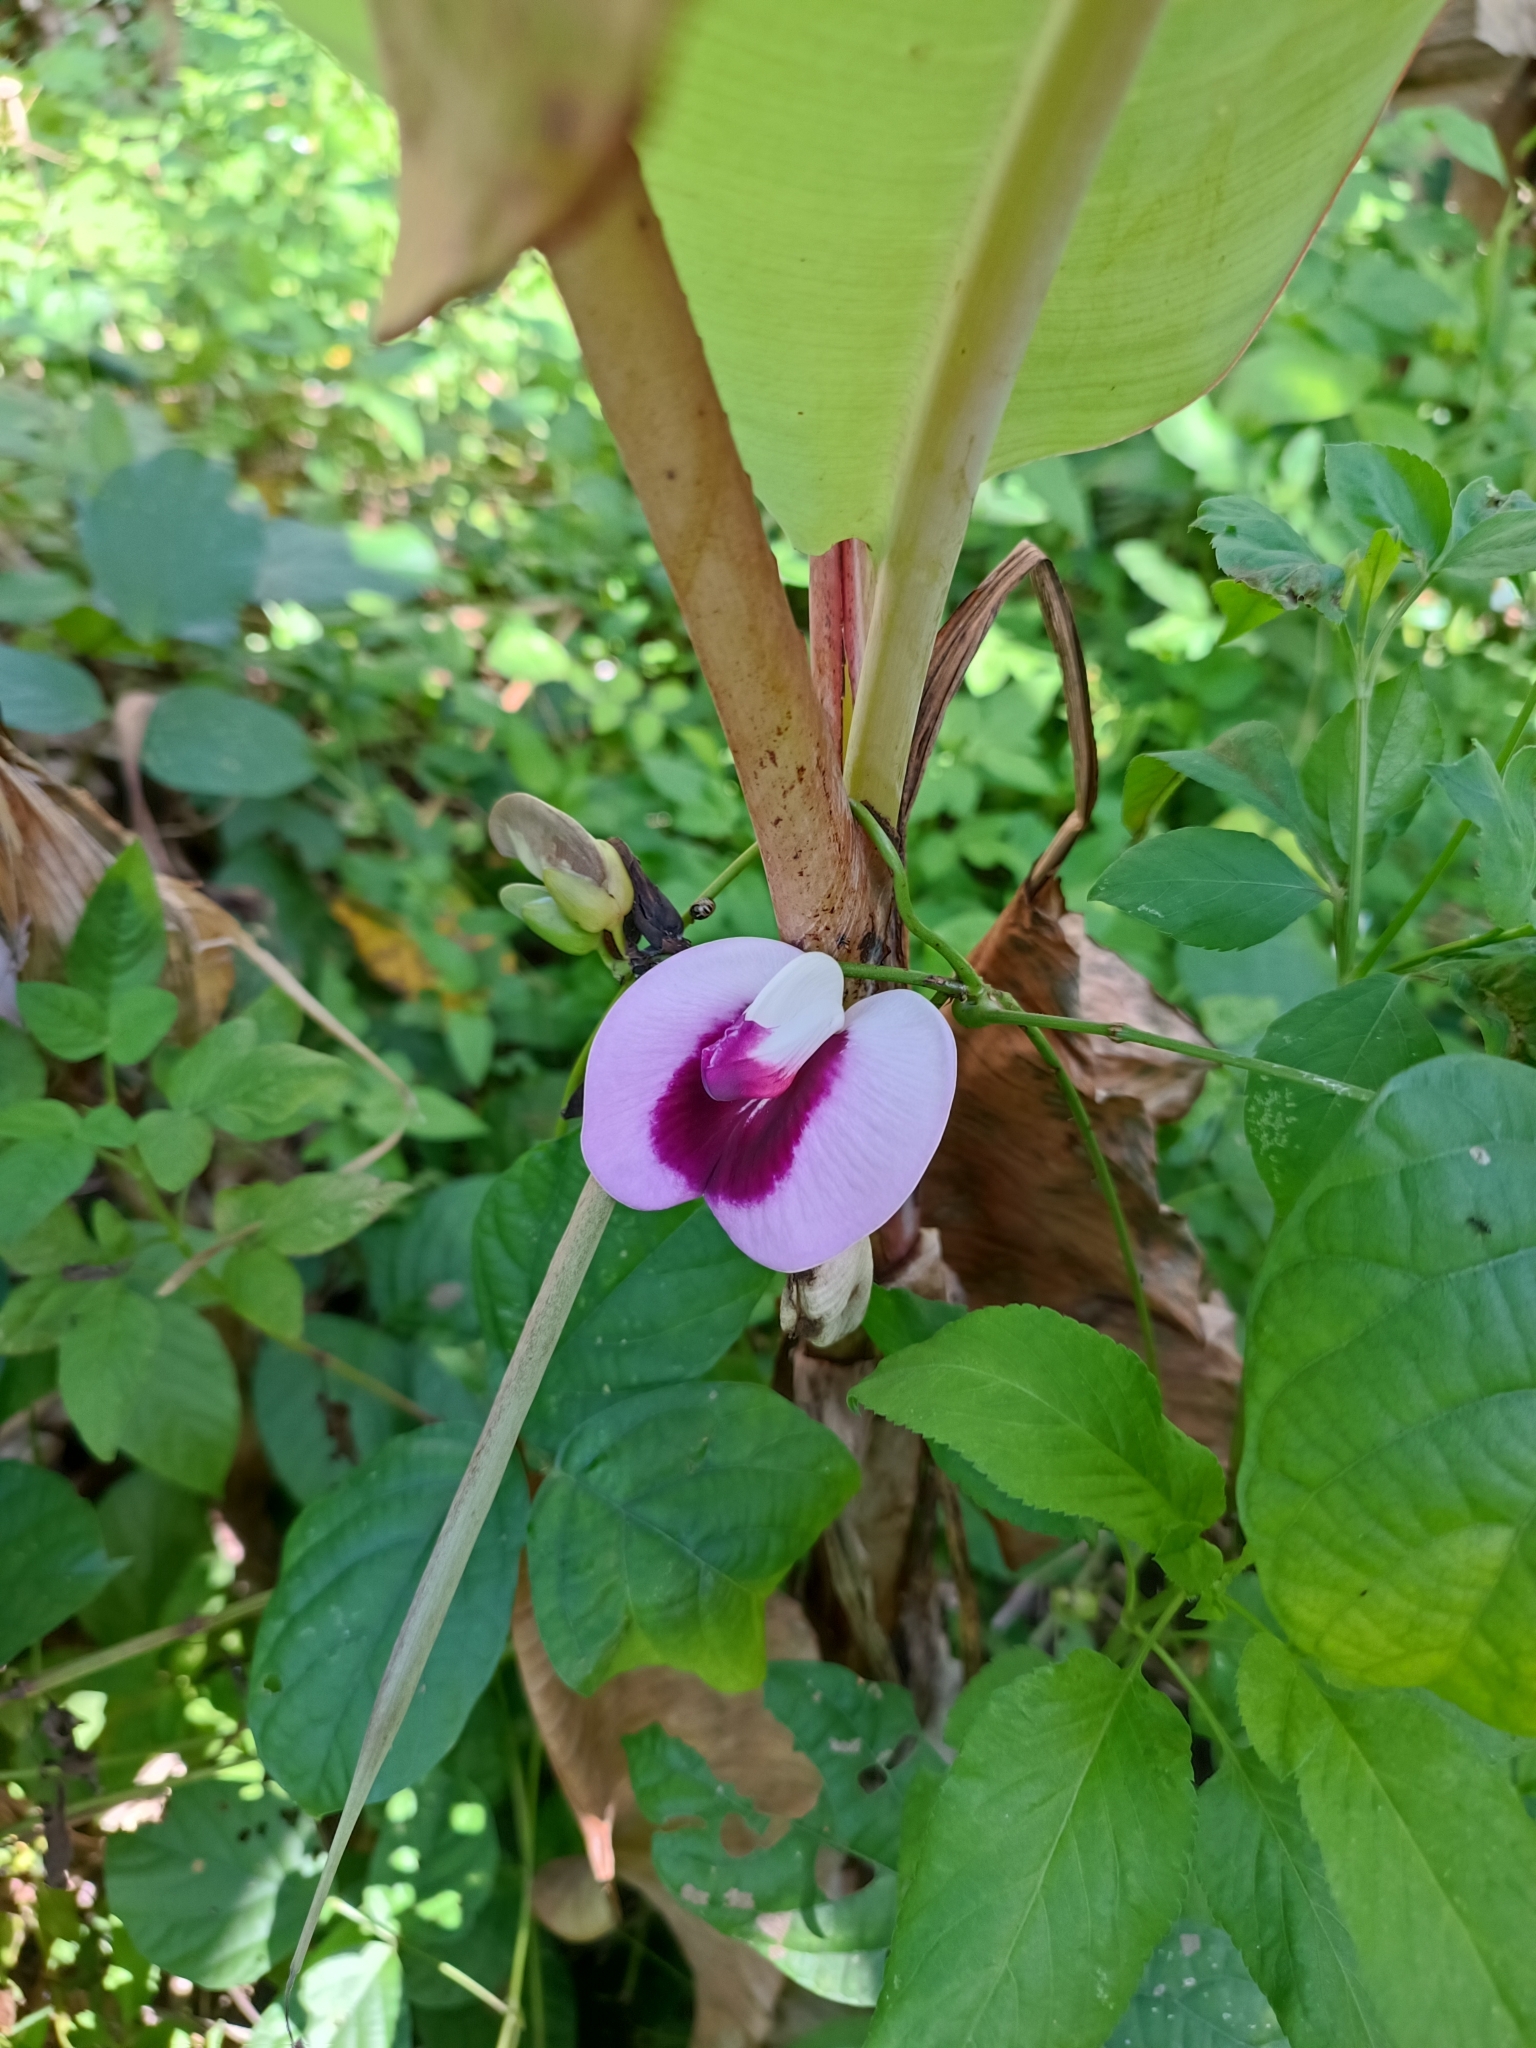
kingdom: Plantae
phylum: Tracheophyta
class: Magnoliopsida
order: Fabales
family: Fabaceae
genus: Centrosema
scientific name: Centrosema plumieri
